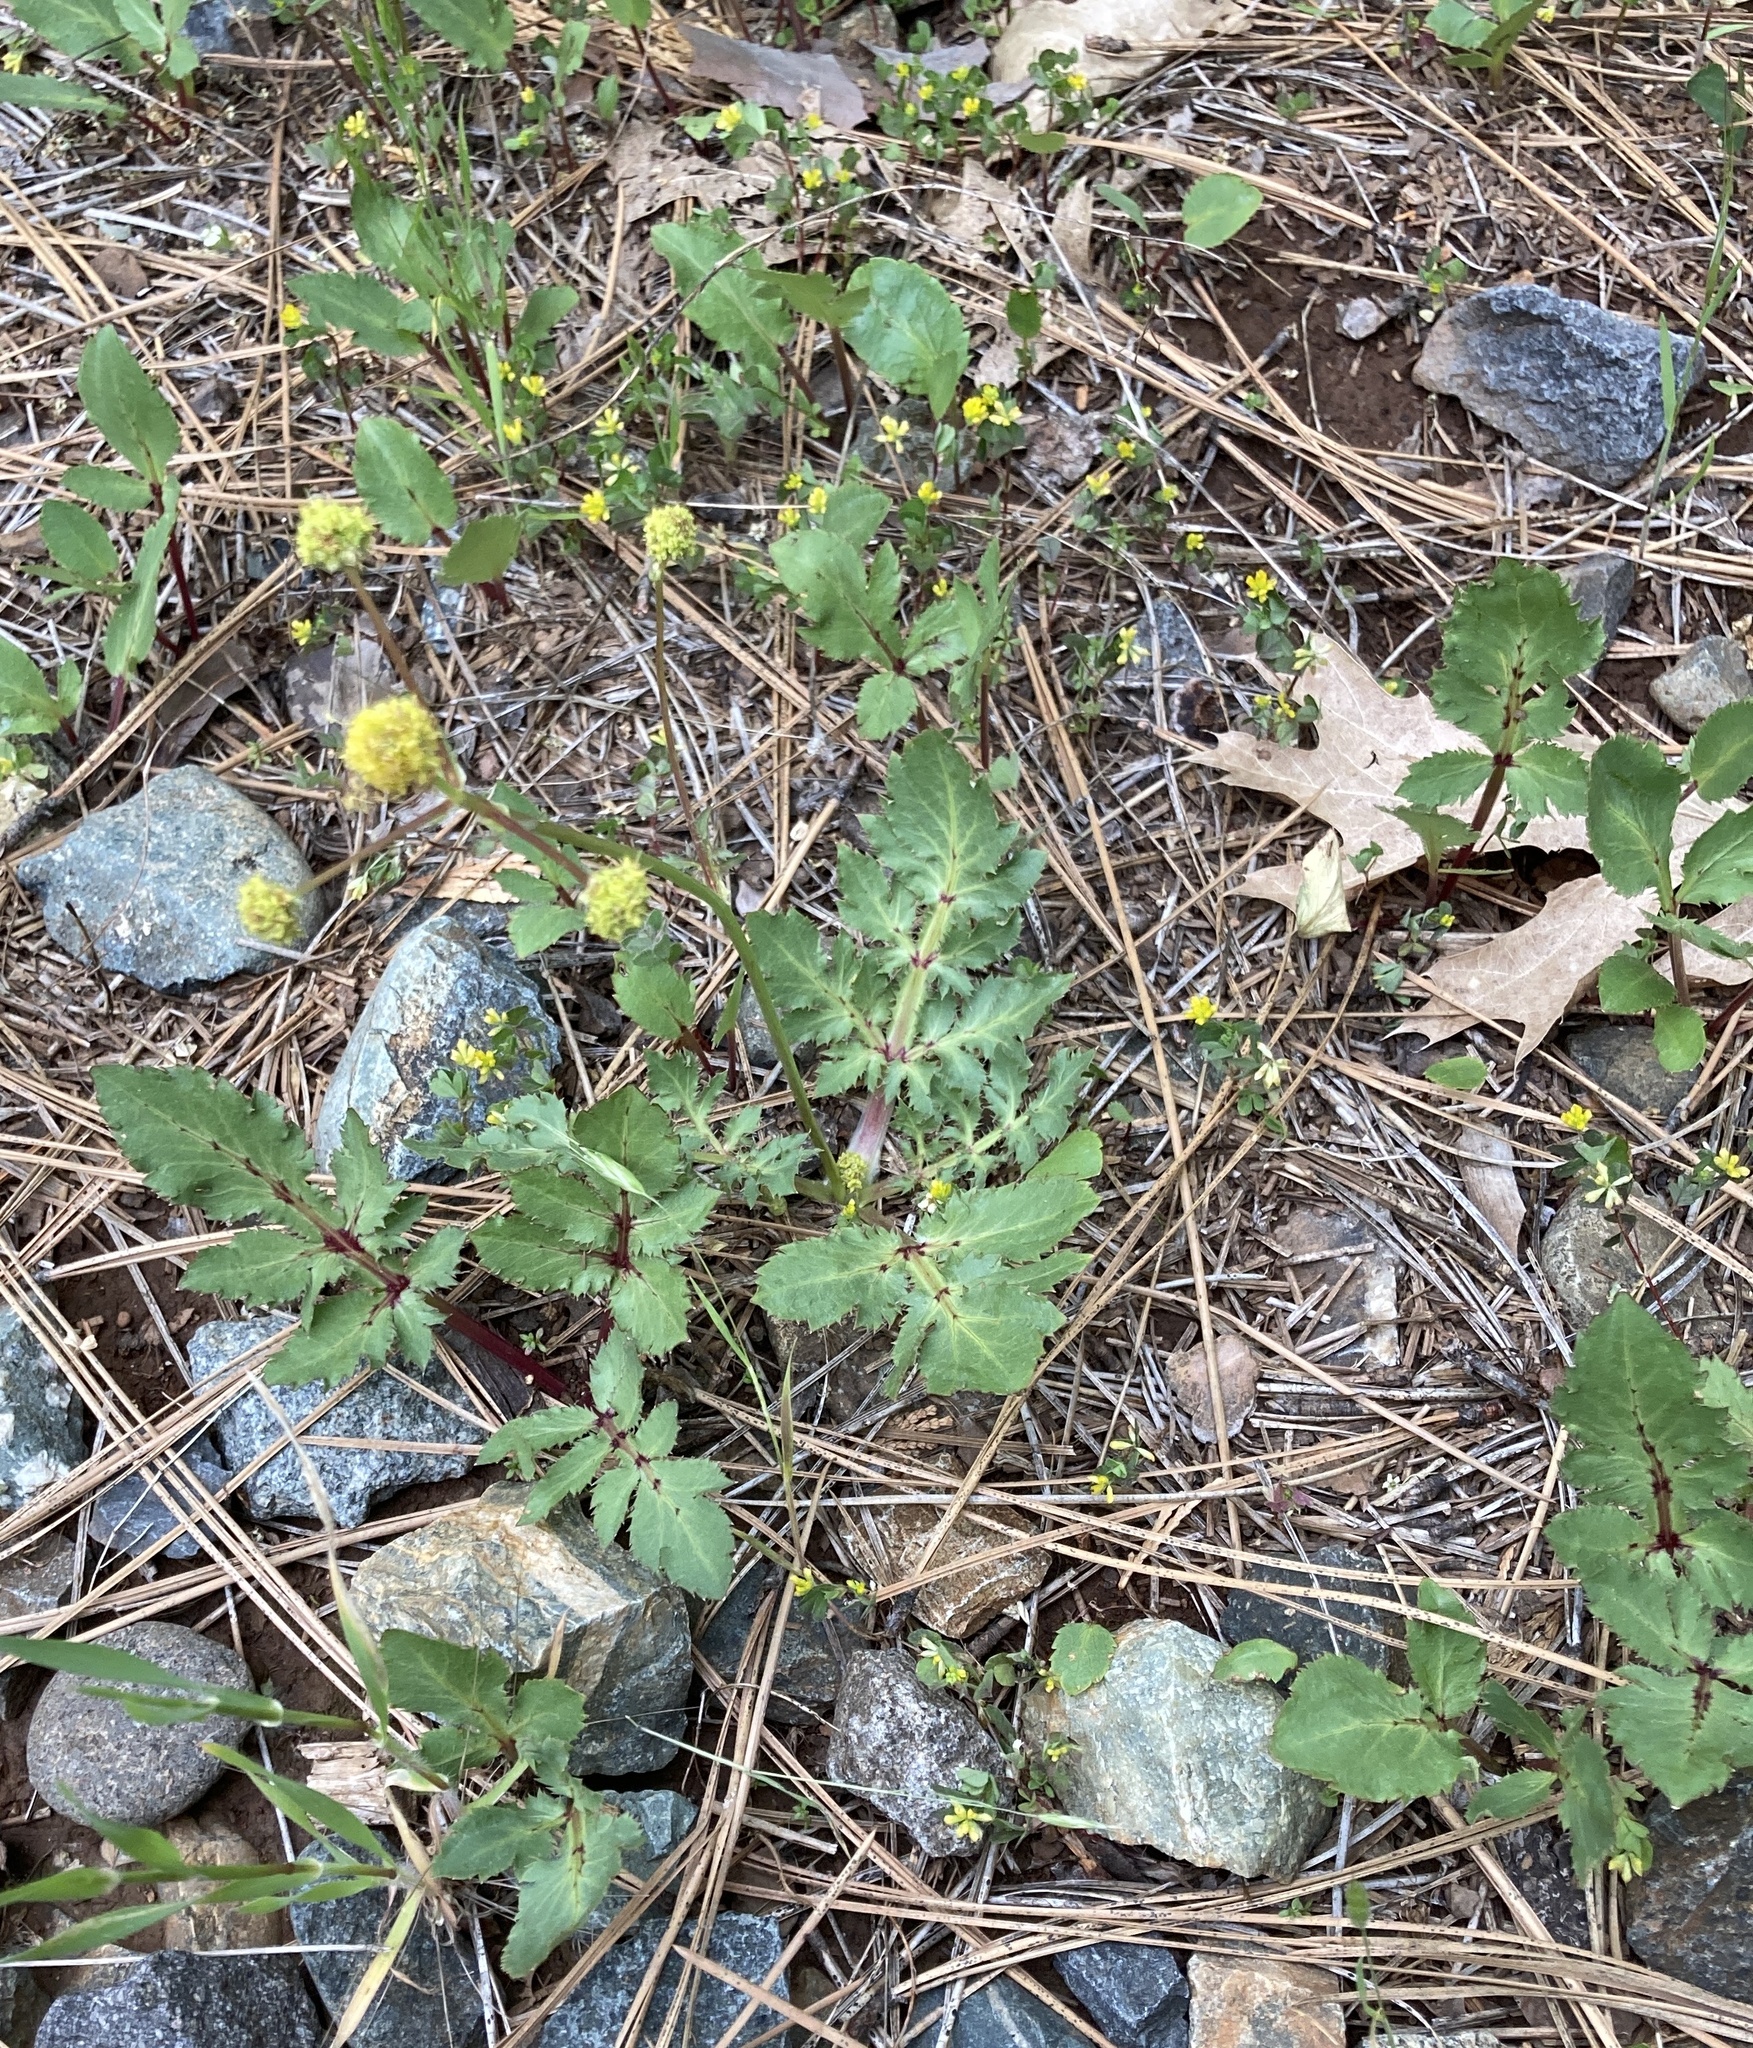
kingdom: Plantae
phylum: Tracheophyta
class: Magnoliopsida
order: Apiales
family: Apiaceae
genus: Sanicula
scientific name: Sanicula bipinnatifida
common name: Shoe-buttons
